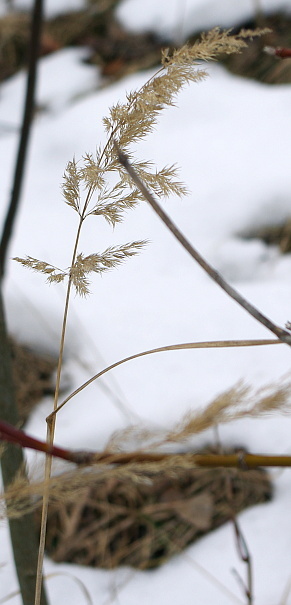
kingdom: Plantae
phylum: Tracheophyta
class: Liliopsida
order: Poales
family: Poaceae
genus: Calamagrostis
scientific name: Calamagrostis epigejos
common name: Wood small-reed
